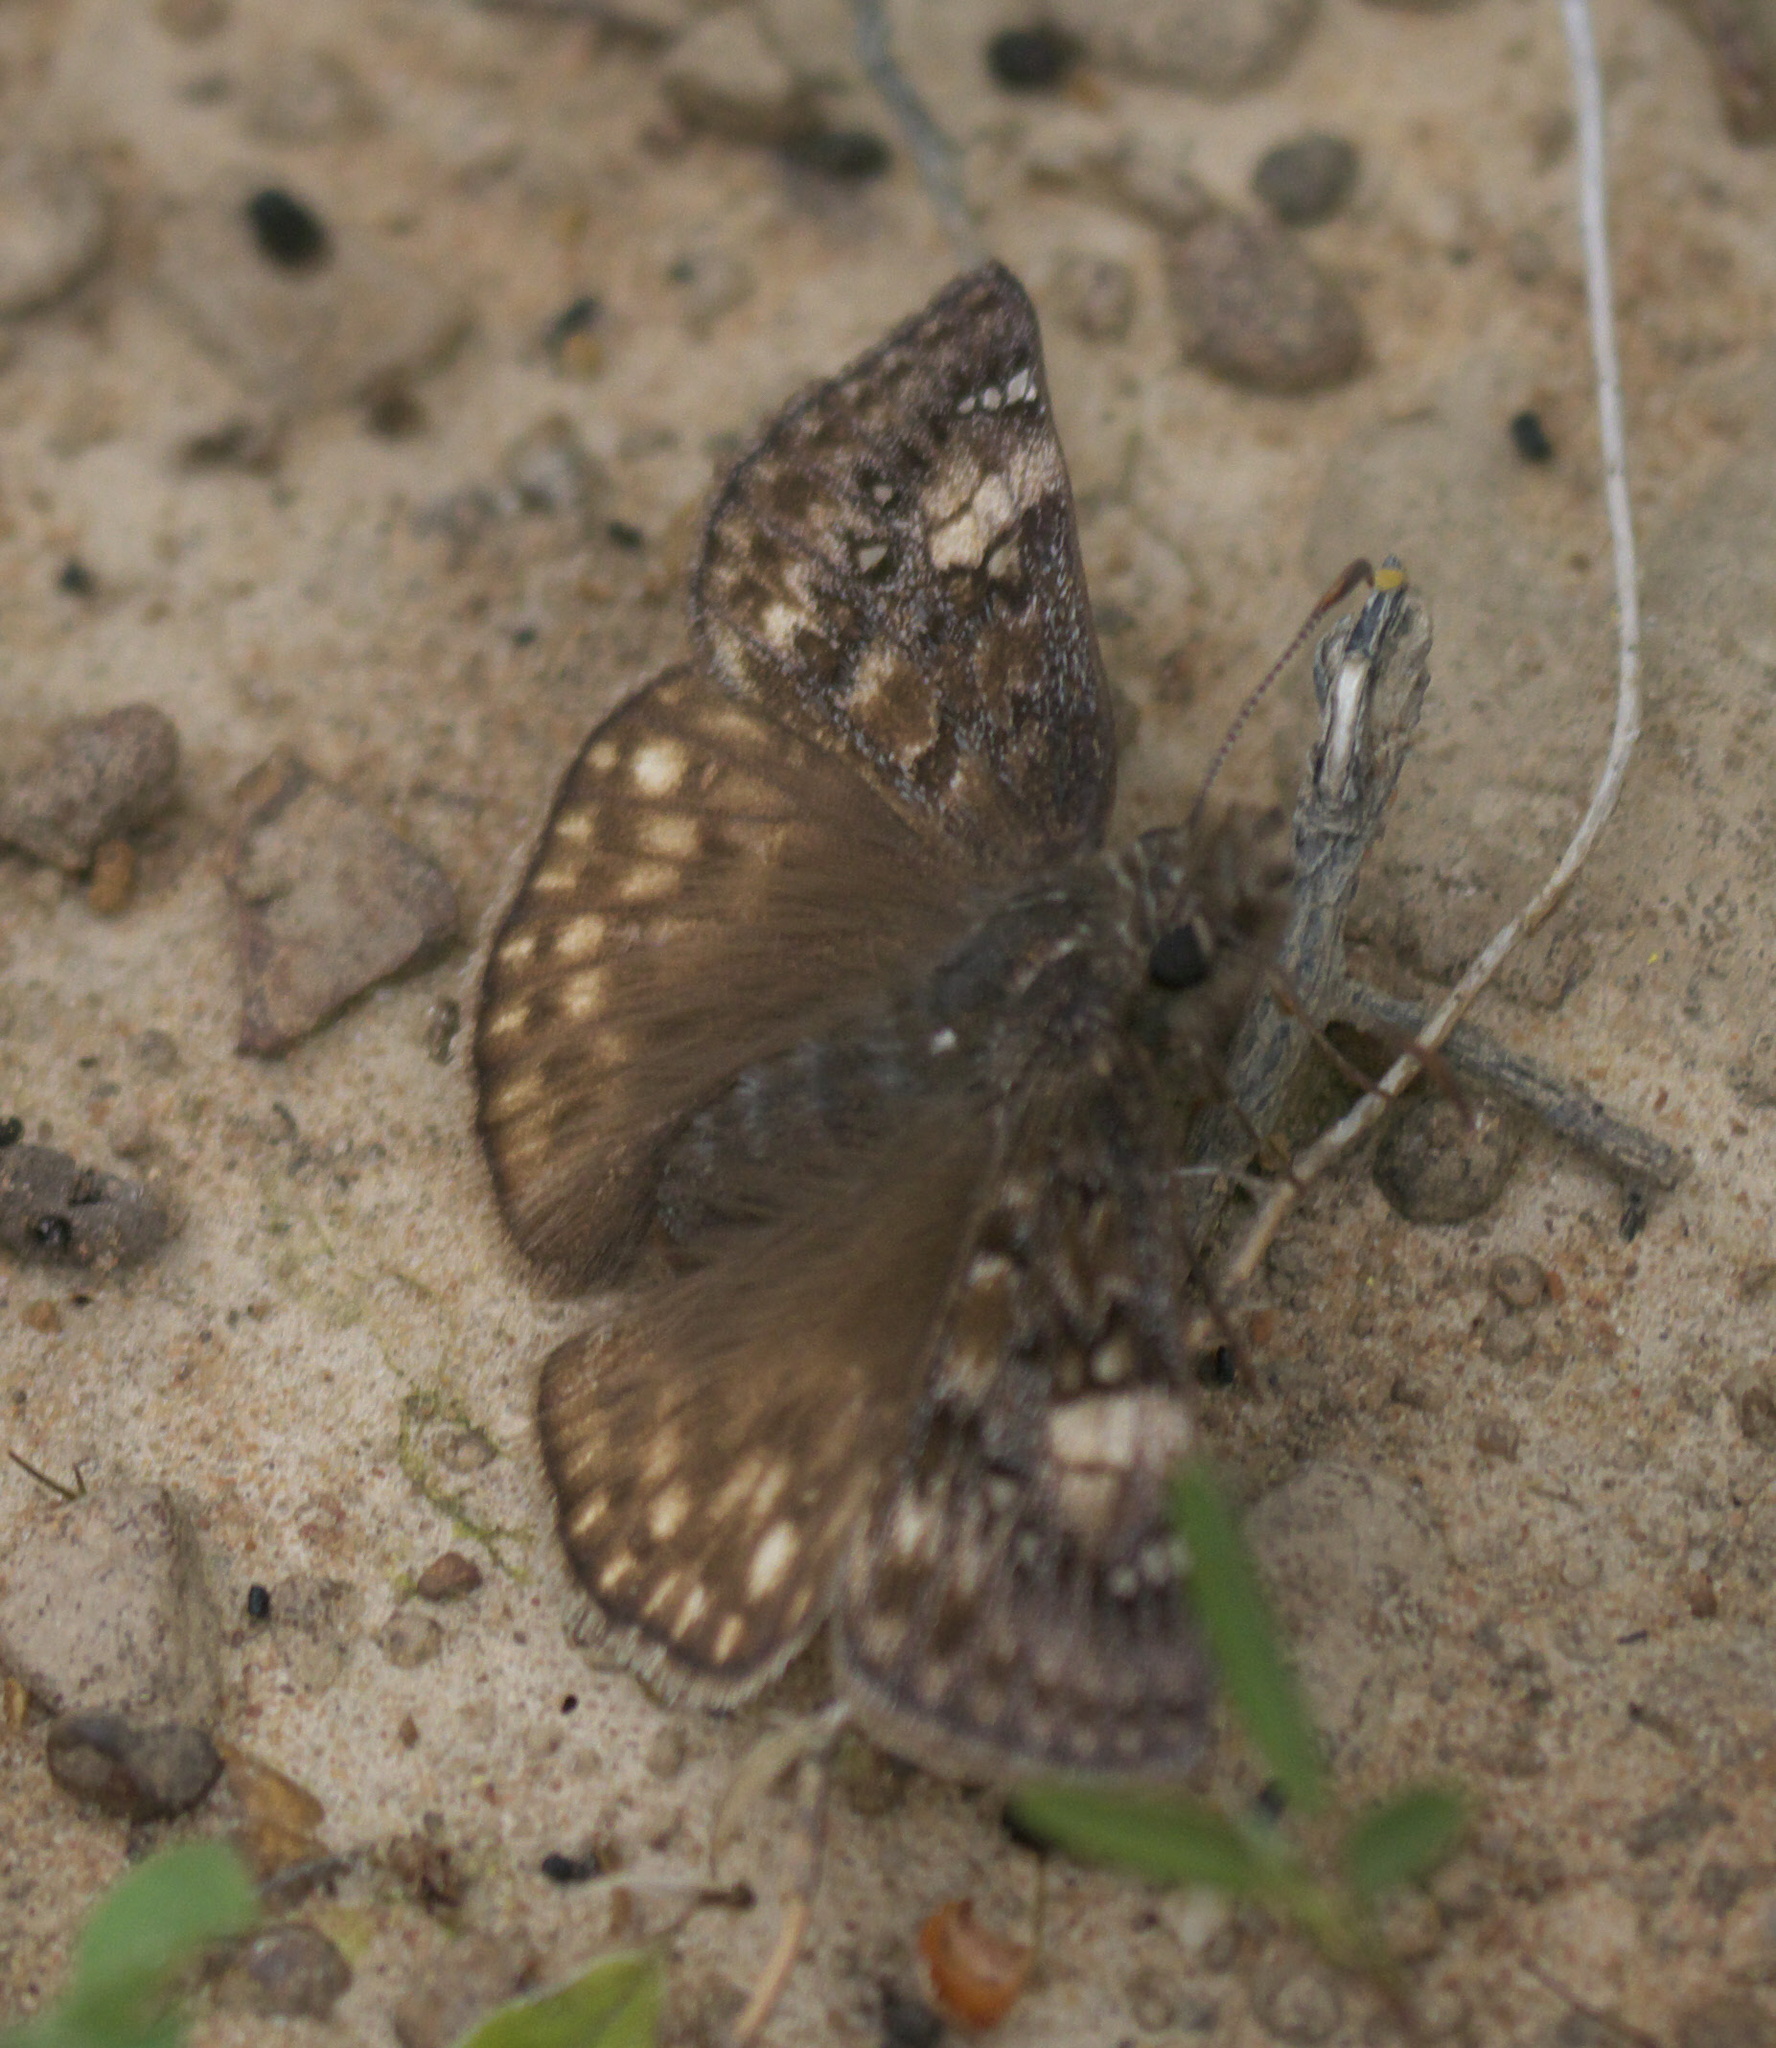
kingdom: Animalia
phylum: Arthropoda
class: Insecta
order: Lepidoptera
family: Hesperiidae
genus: Erynnis
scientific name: Erynnis juvenalis
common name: Juvenal's duskywing
